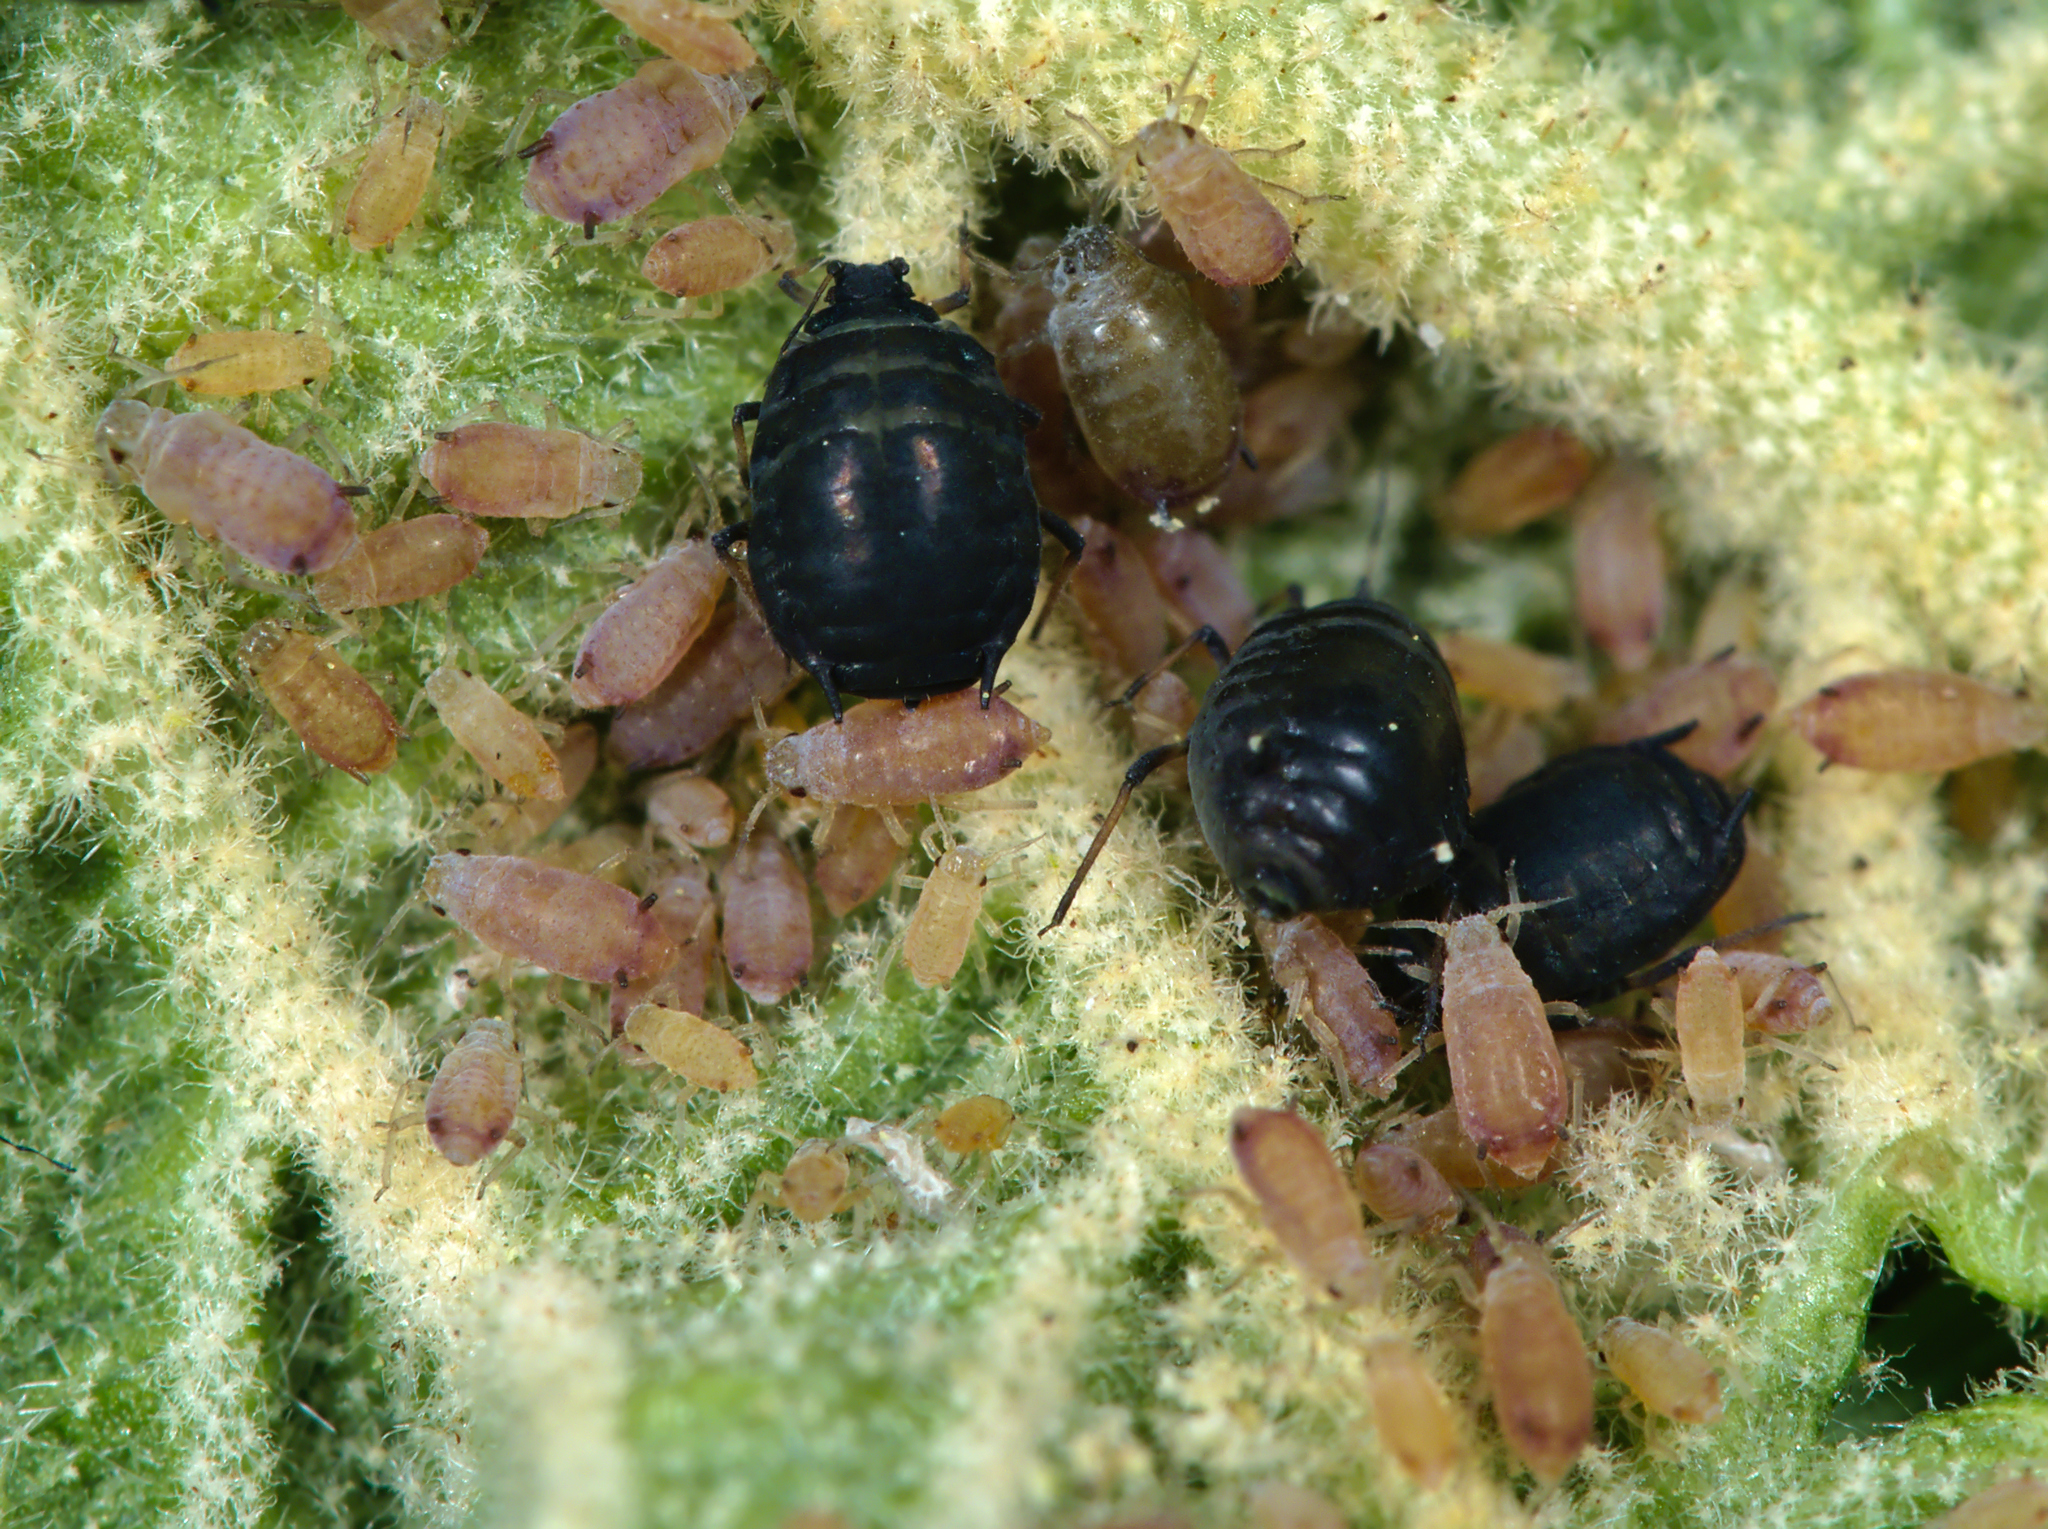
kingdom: Animalia
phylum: Arthropoda
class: Insecta
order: Hemiptera
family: Aphididae
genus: Ceruraphis
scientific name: Ceruraphis eriophori
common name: Aphid
